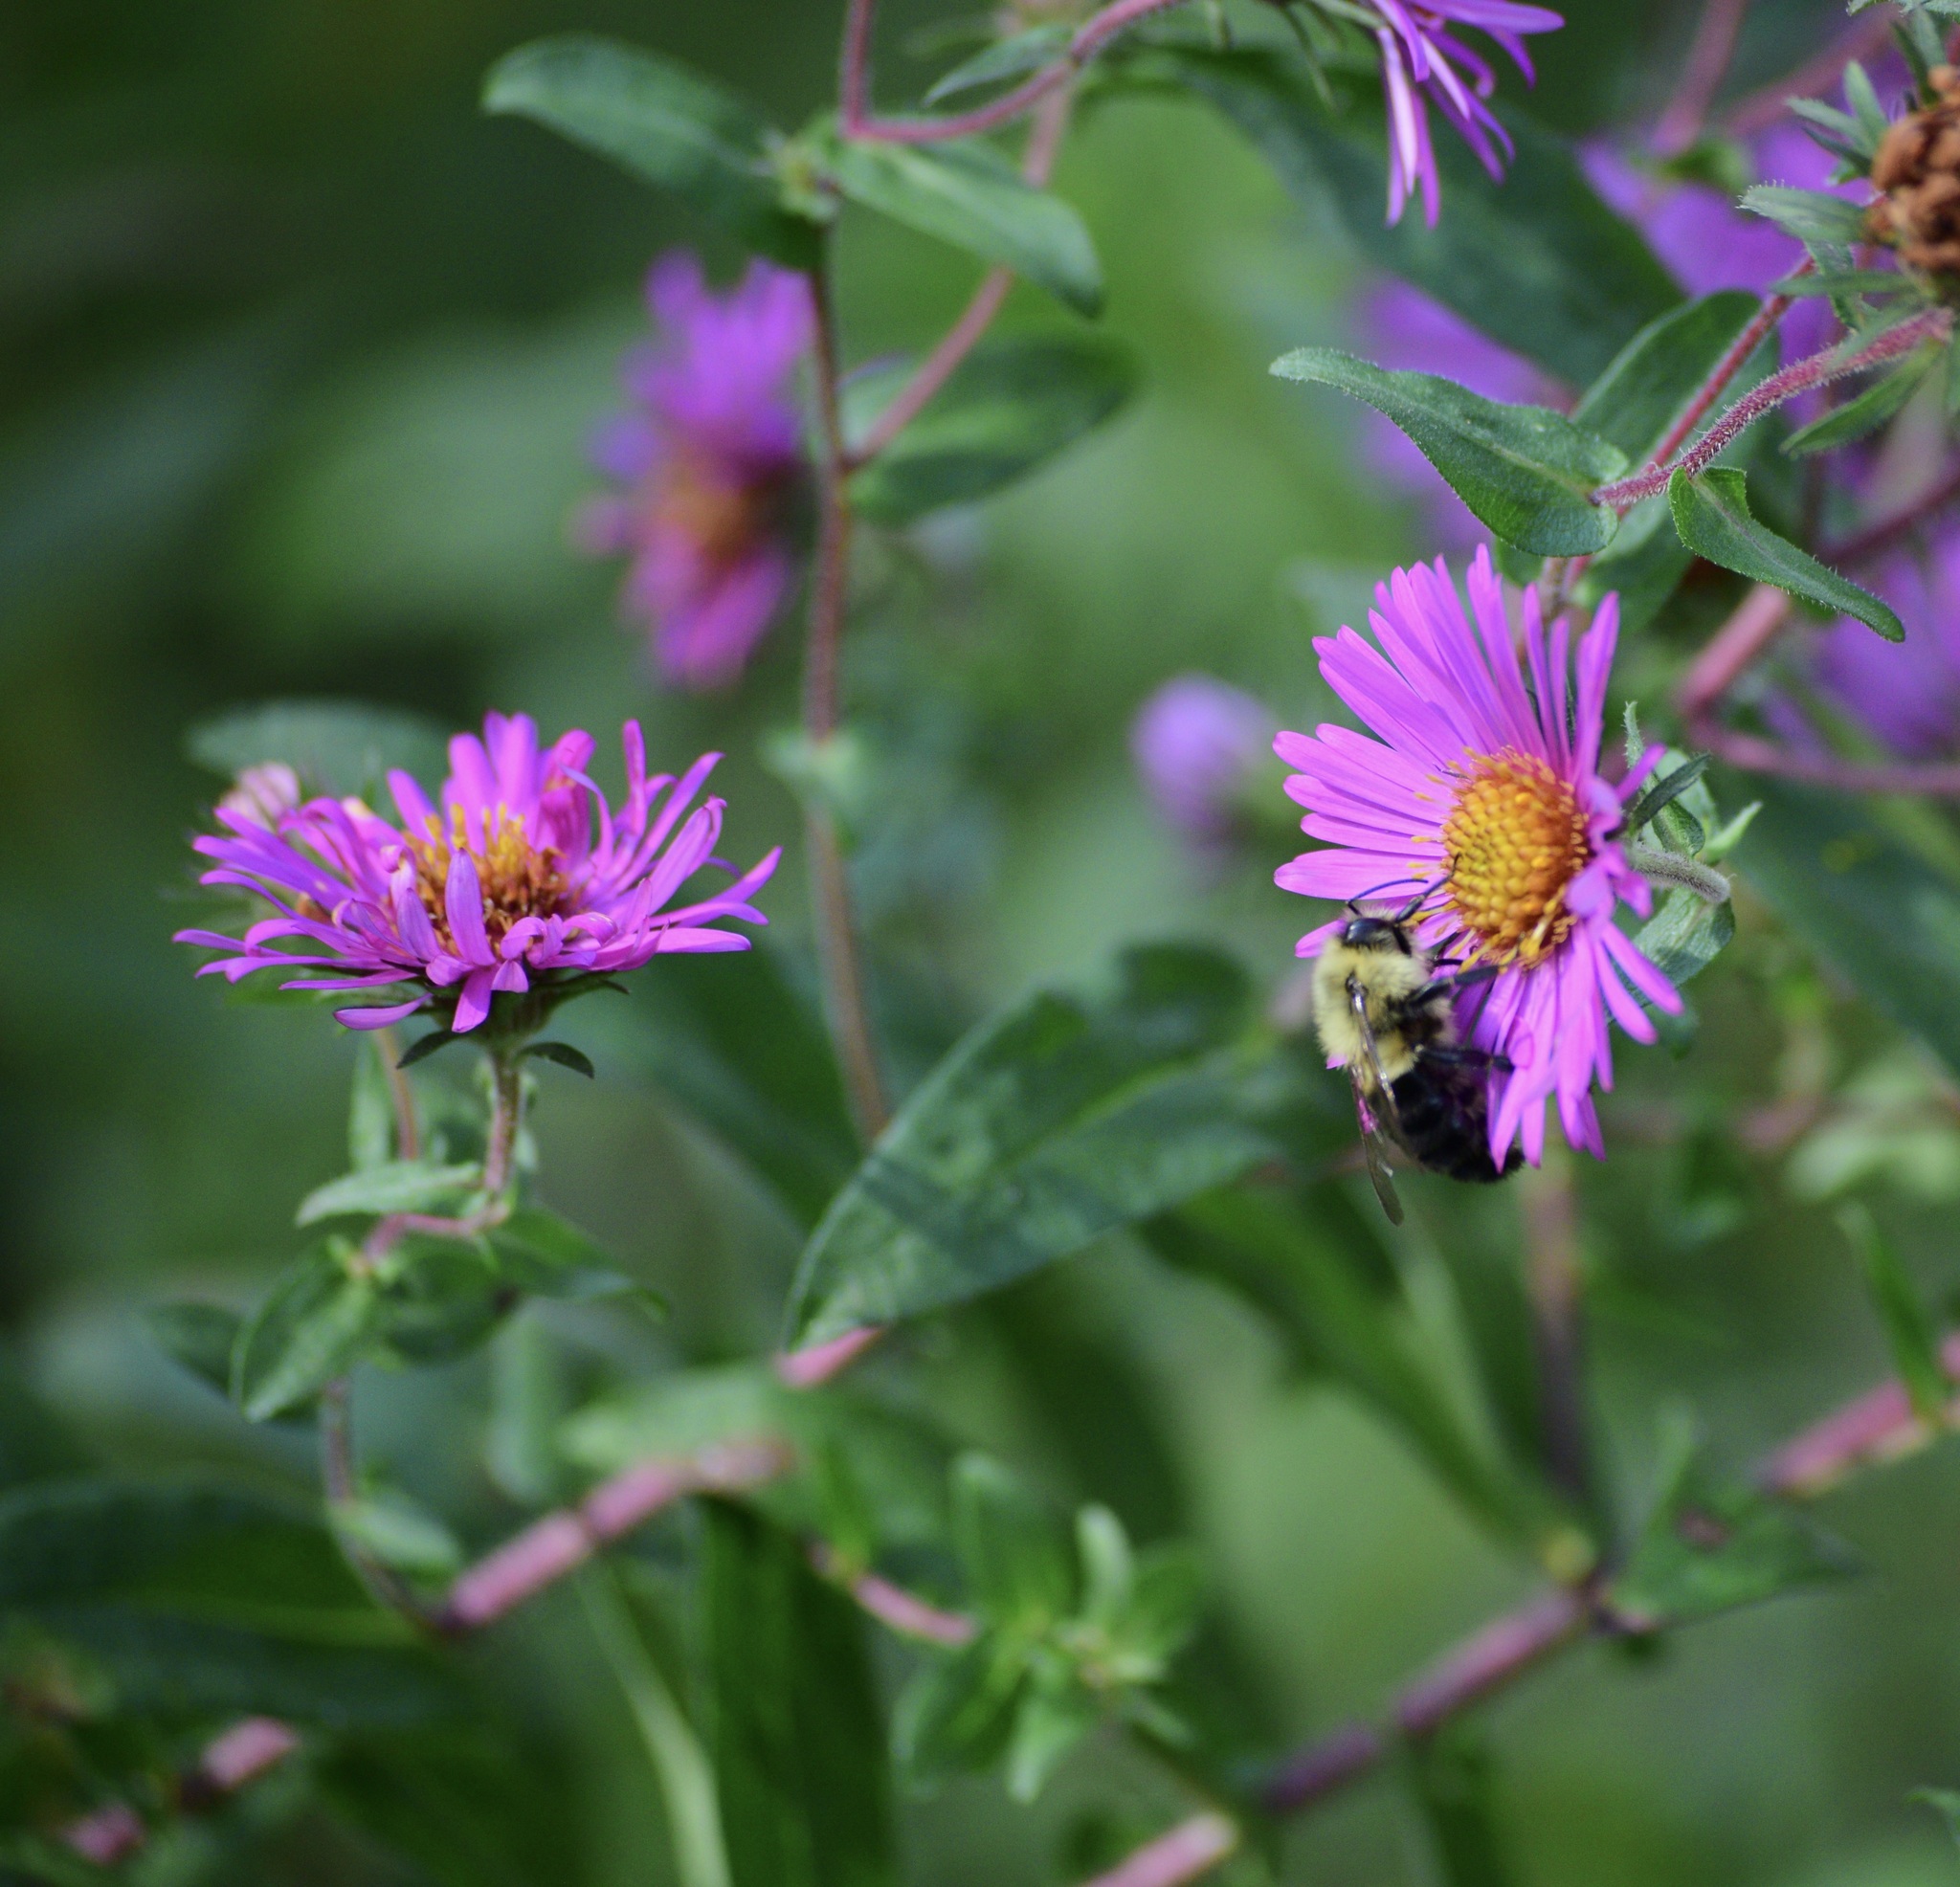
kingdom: Animalia
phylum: Arthropoda
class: Insecta
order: Hymenoptera
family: Apidae
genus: Bombus
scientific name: Bombus impatiens
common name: Common eastern bumble bee
